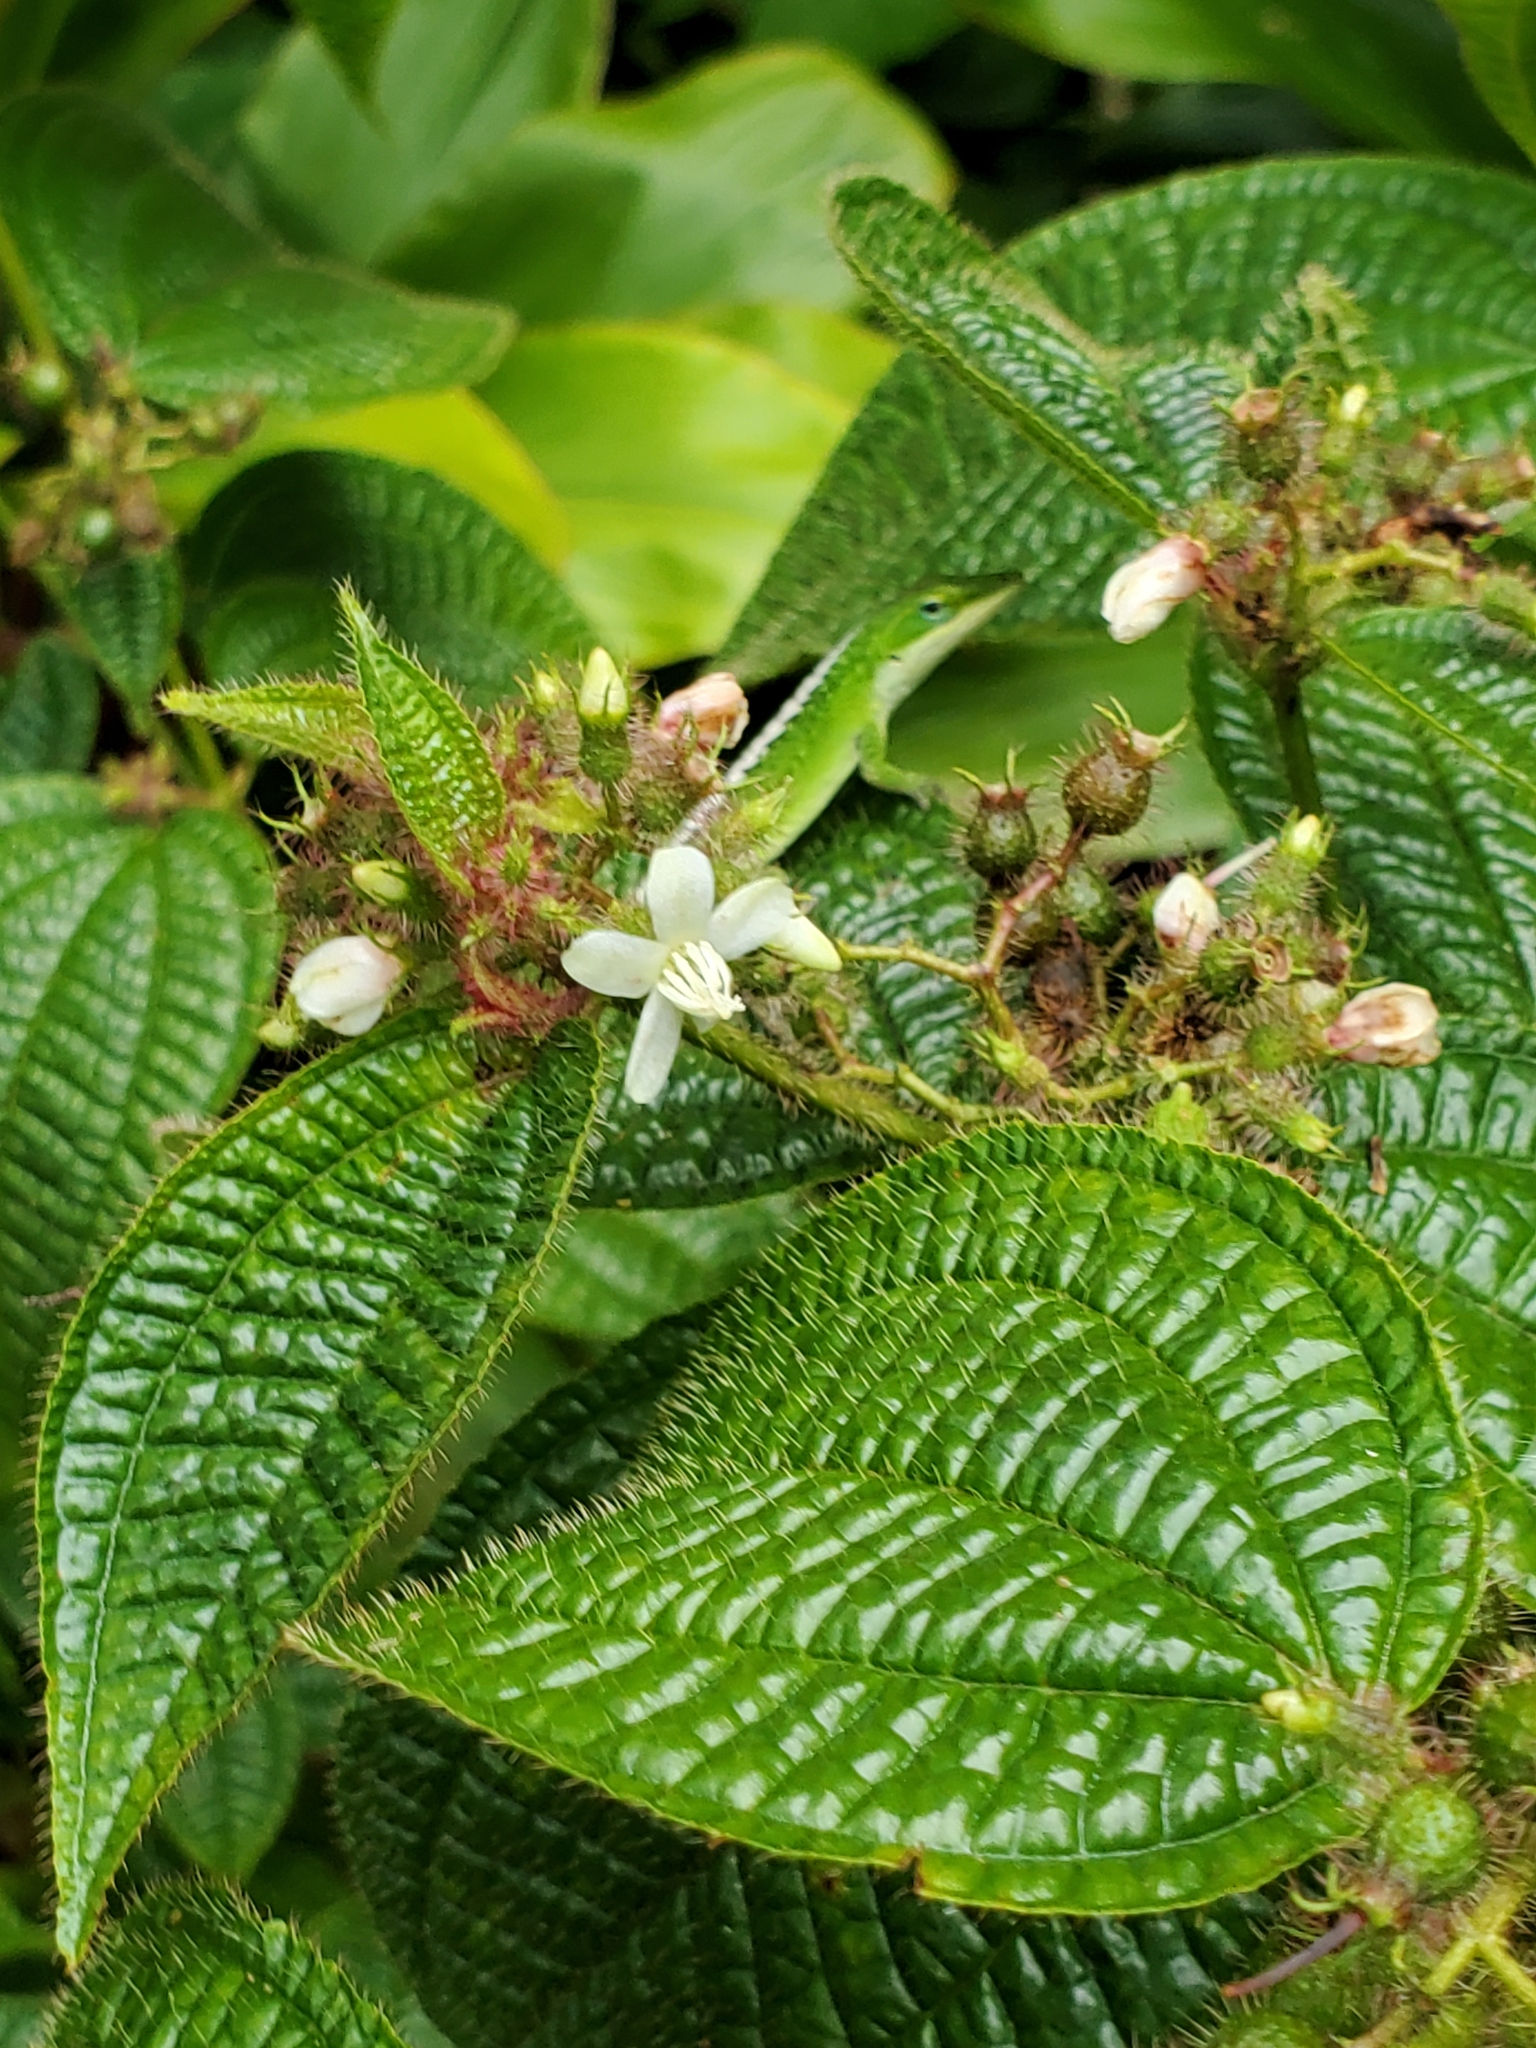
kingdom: Plantae
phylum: Tracheophyta
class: Magnoliopsida
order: Myrtales
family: Melastomataceae
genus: Miconia
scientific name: Miconia crenata
